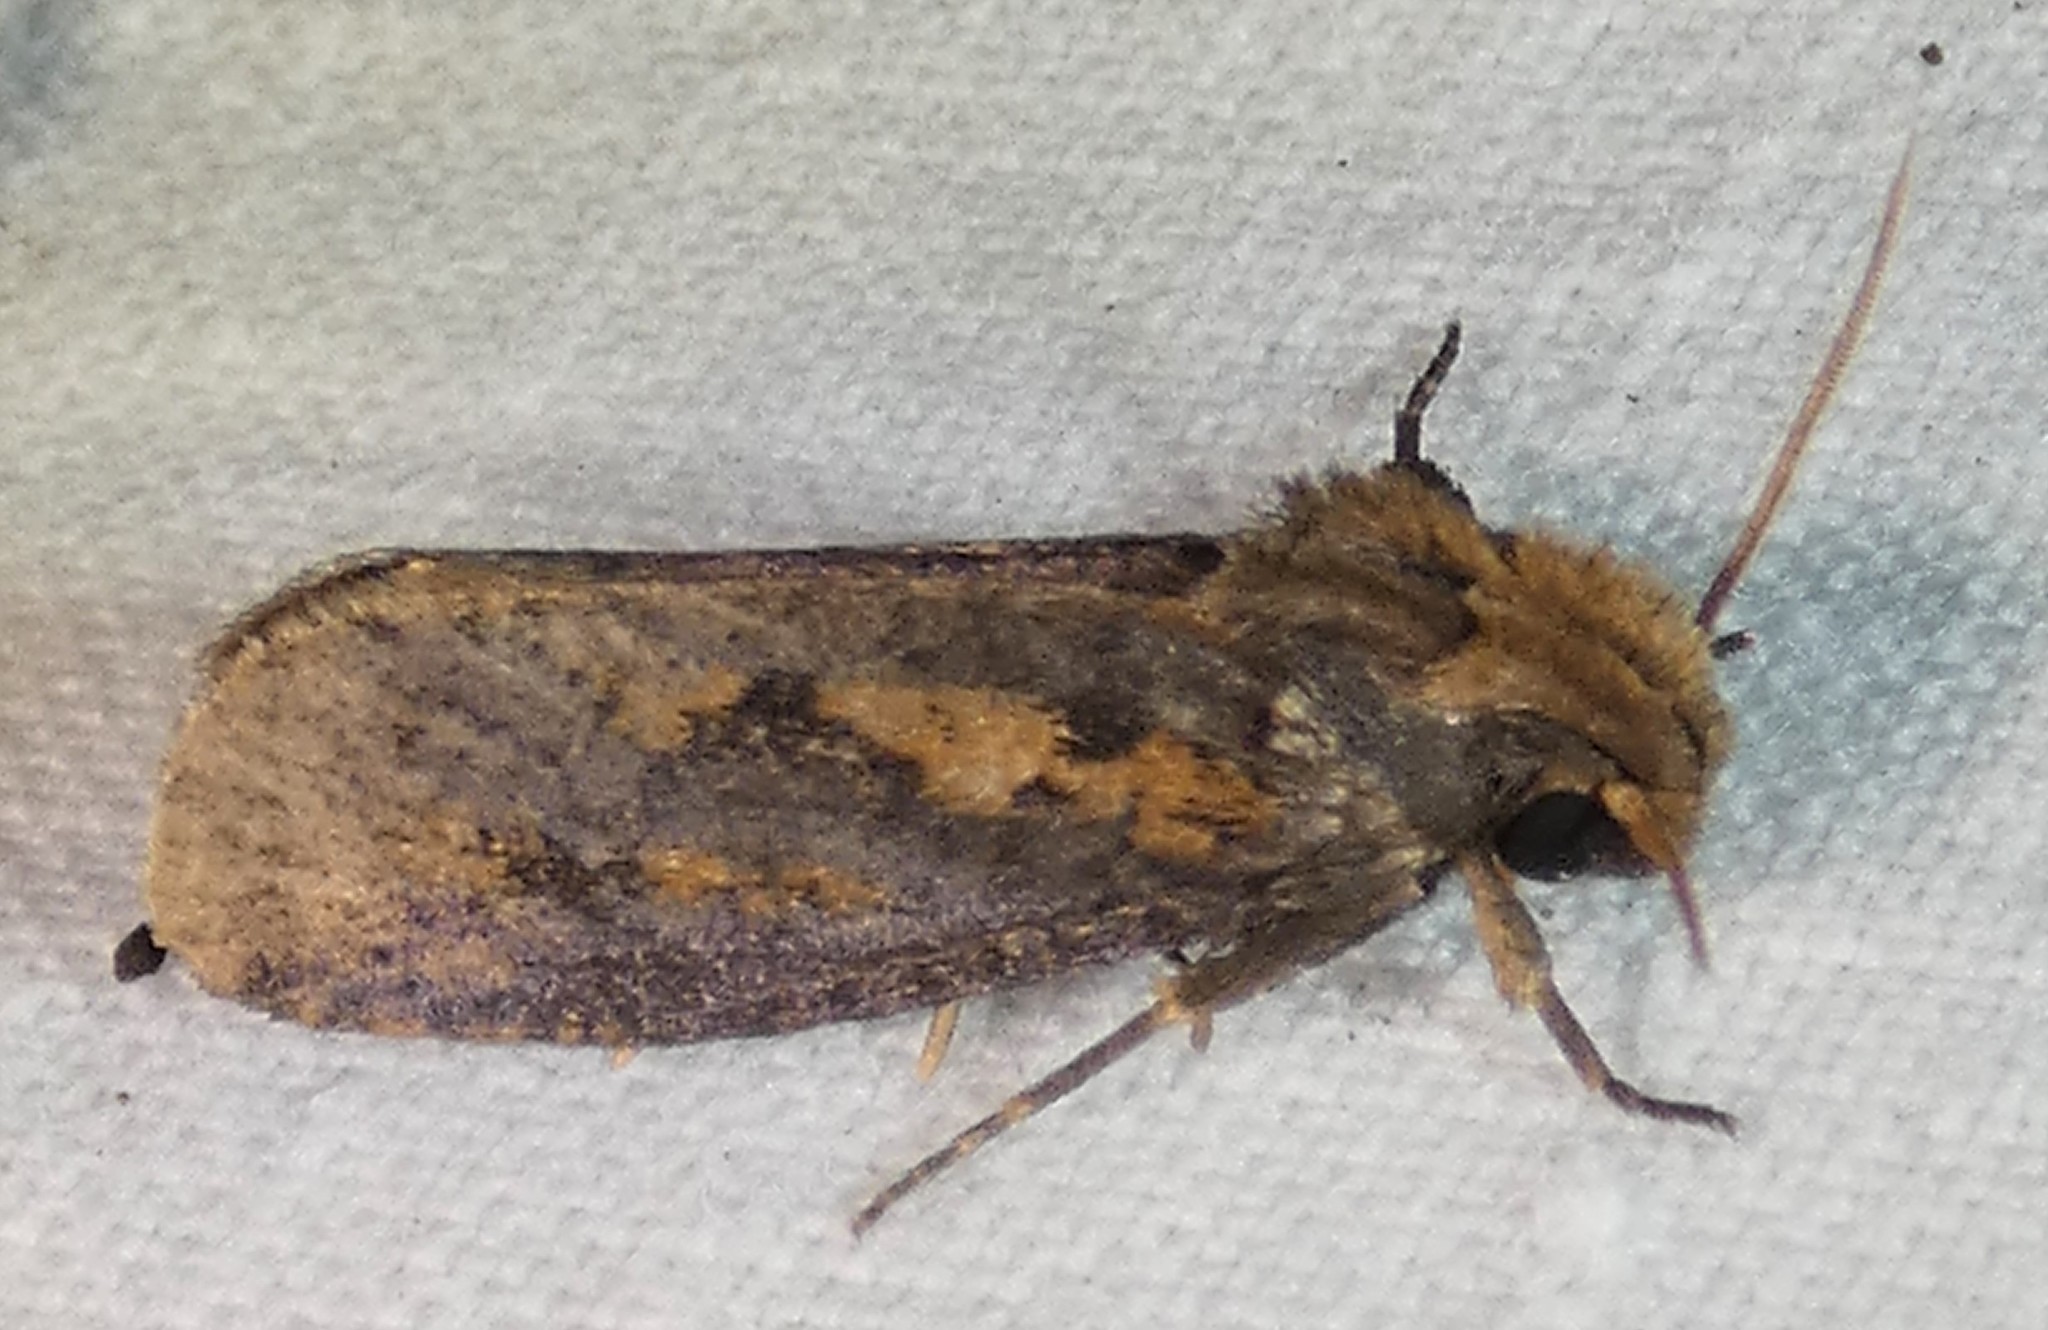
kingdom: Animalia
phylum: Arthropoda
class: Insecta
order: Lepidoptera
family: Tineidae
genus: Acrolophus
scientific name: Acrolophus popeanella
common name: Clemens' grass tubeworm moth
